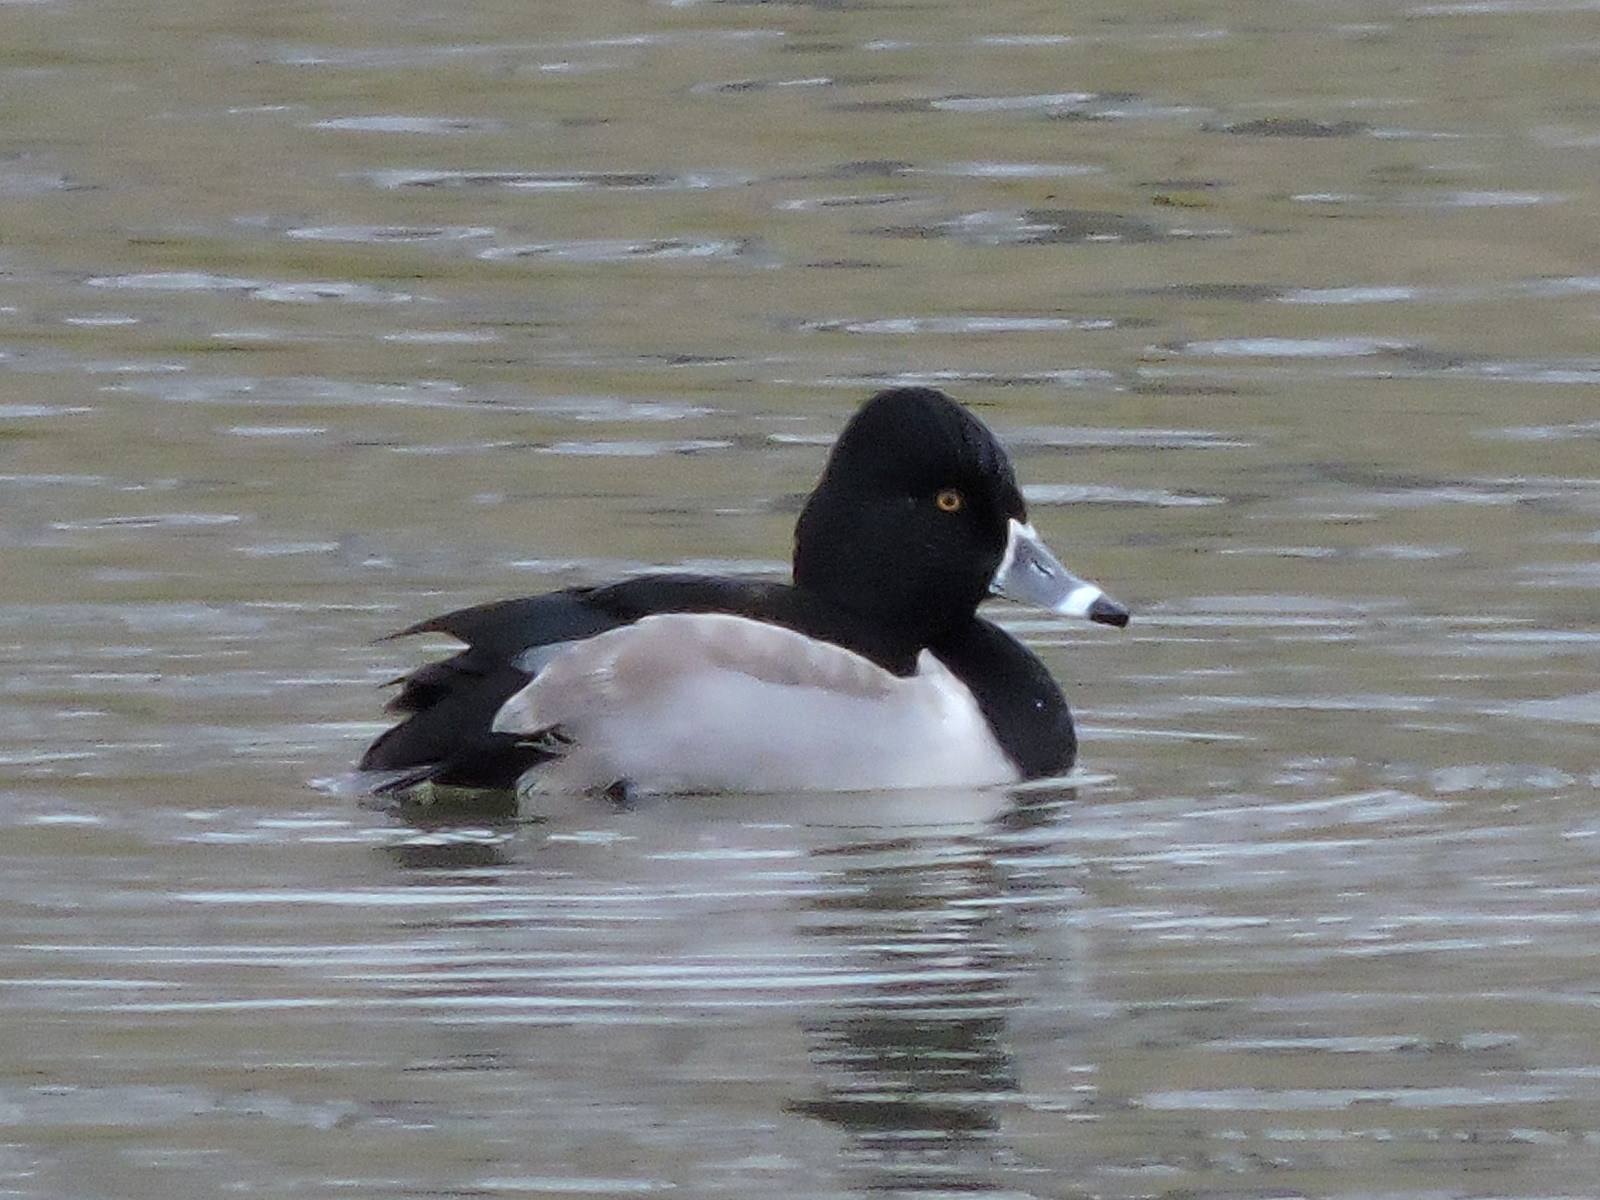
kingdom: Animalia
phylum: Chordata
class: Aves
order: Anseriformes
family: Anatidae
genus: Aythya
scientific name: Aythya collaris
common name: Ring-necked duck
